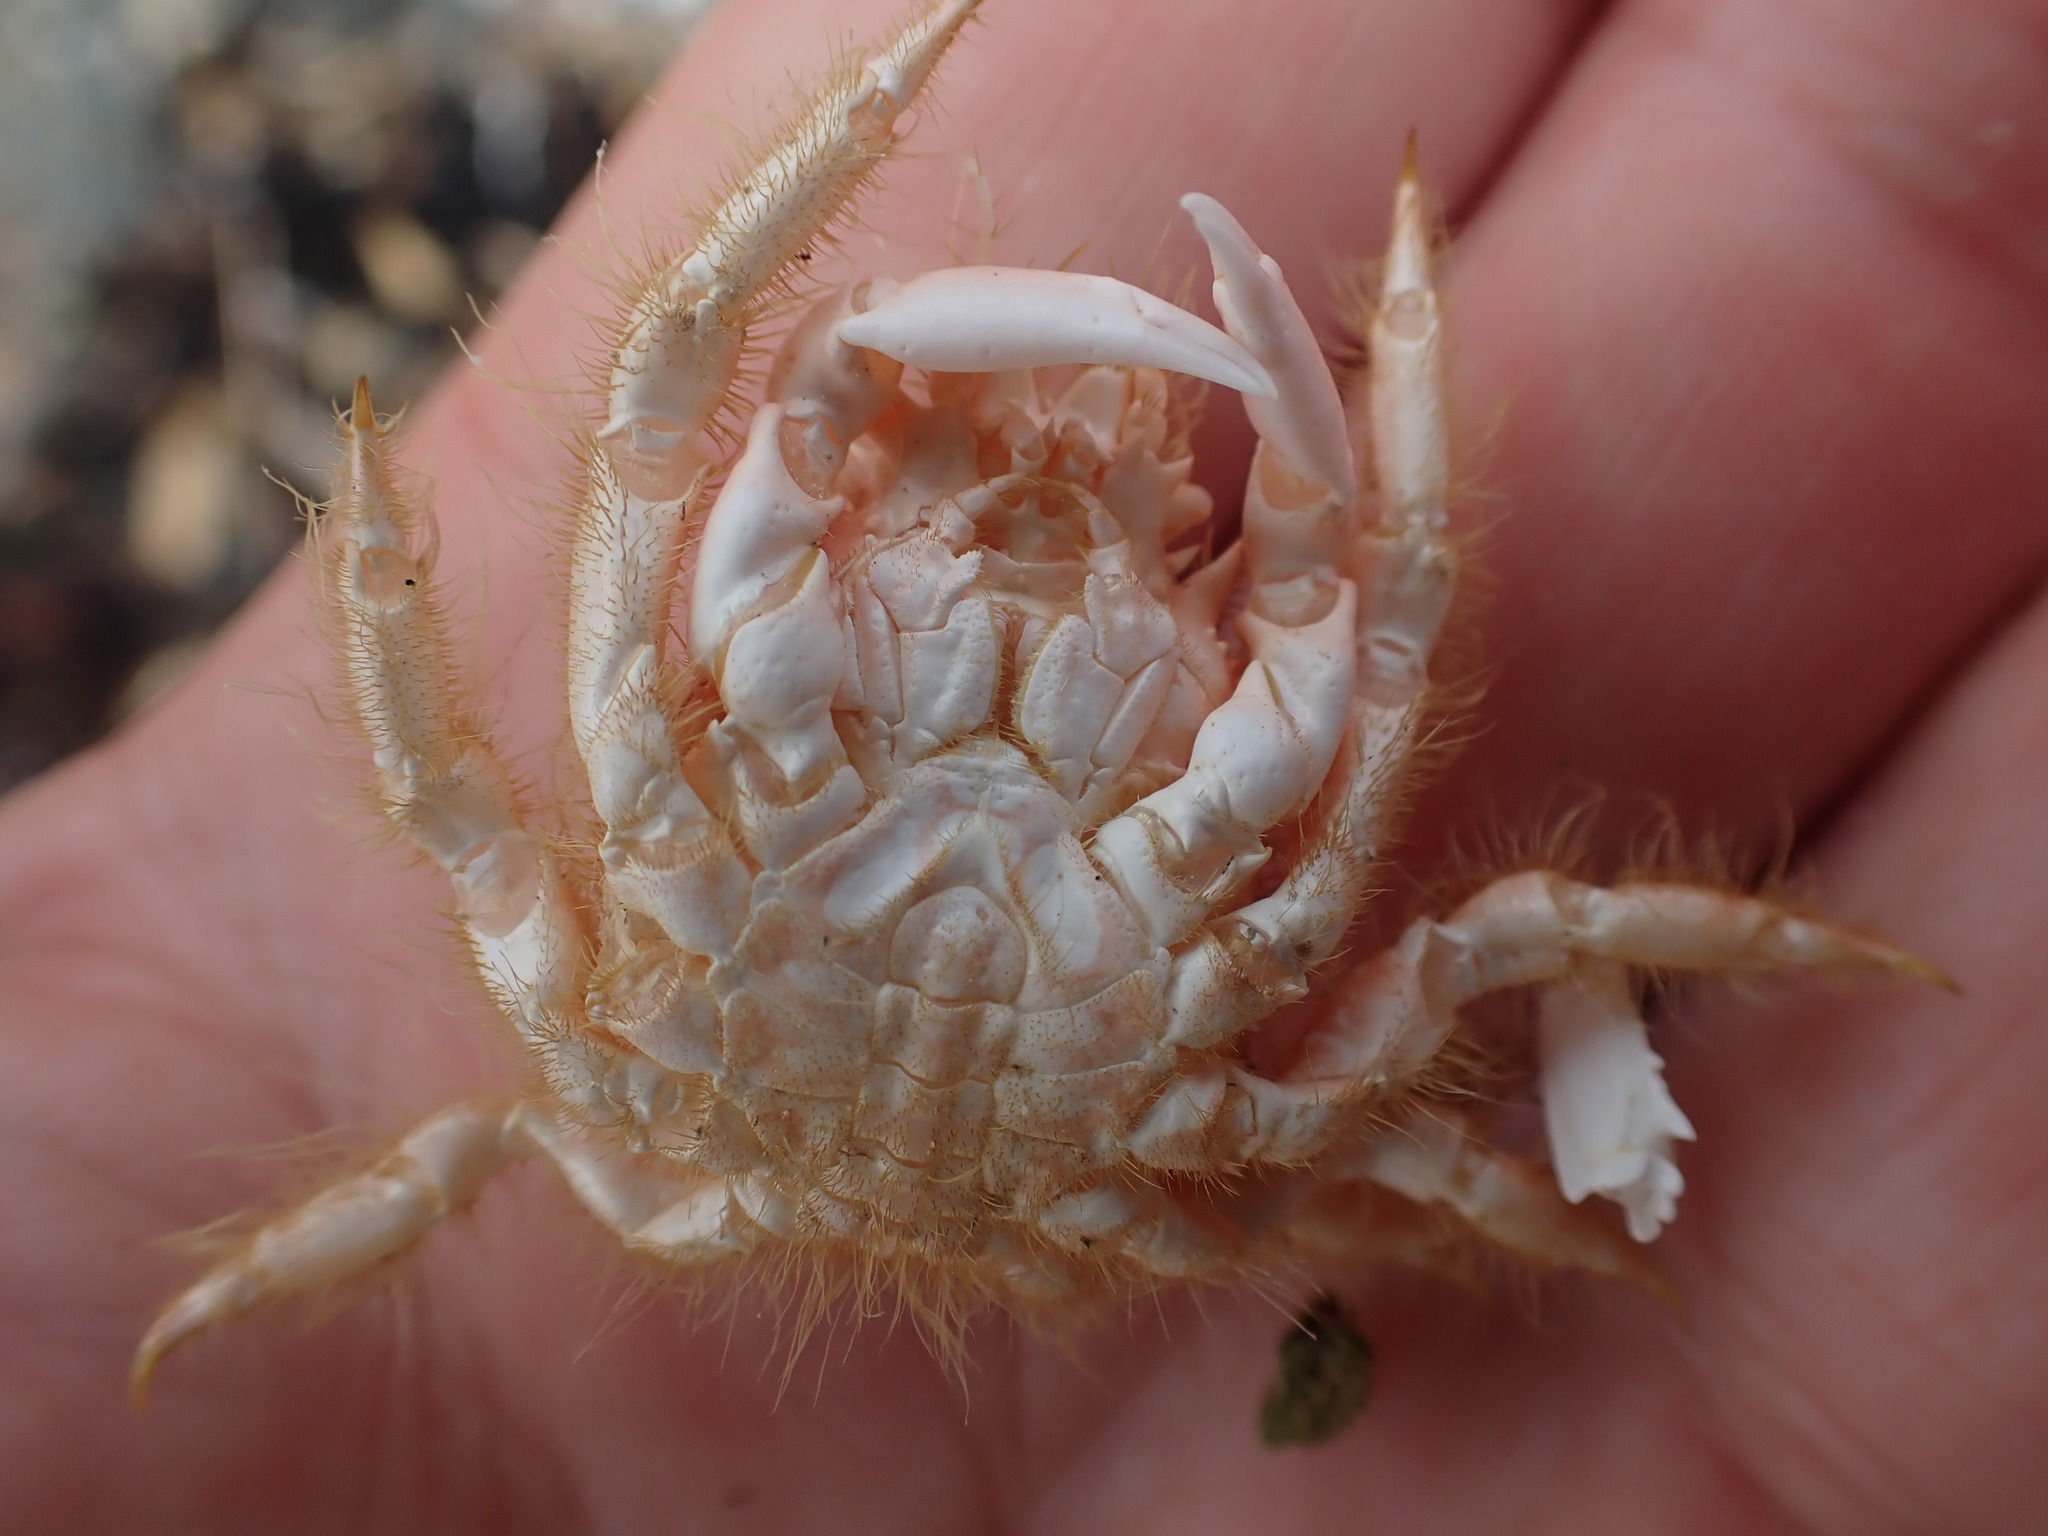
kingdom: Animalia
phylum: Arthropoda
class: Malacostraca
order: Decapoda
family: Majidae
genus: Notomithrax
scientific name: Notomithrax ursus
